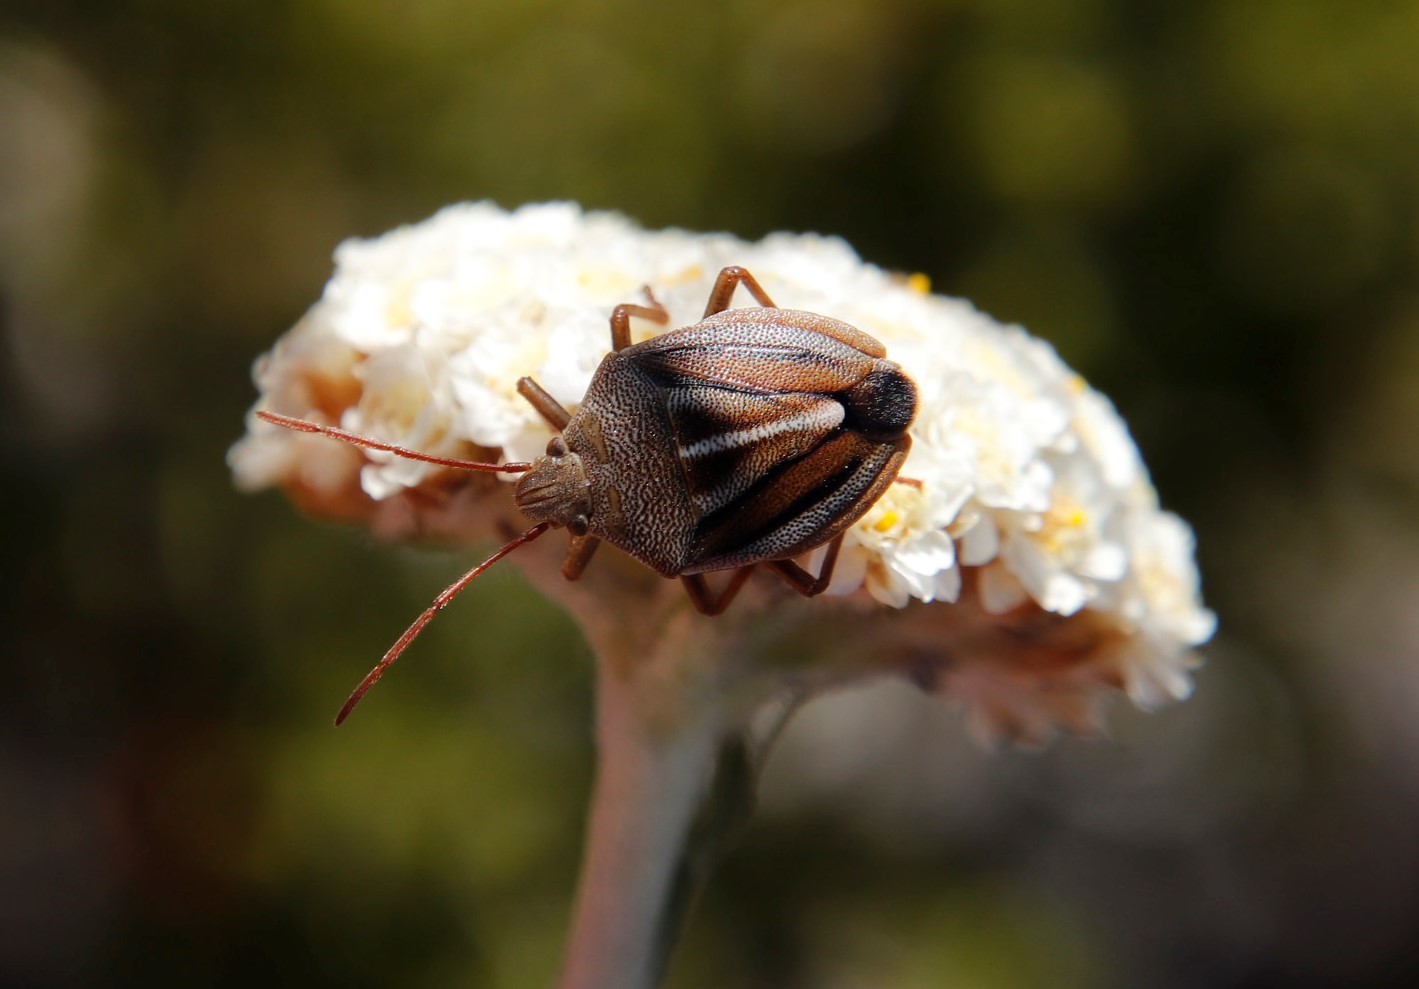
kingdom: Animalia
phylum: Arthropoda
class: Insecta
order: Hemiptera
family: Pentatomidae
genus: Theloris
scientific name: Theloris costata
